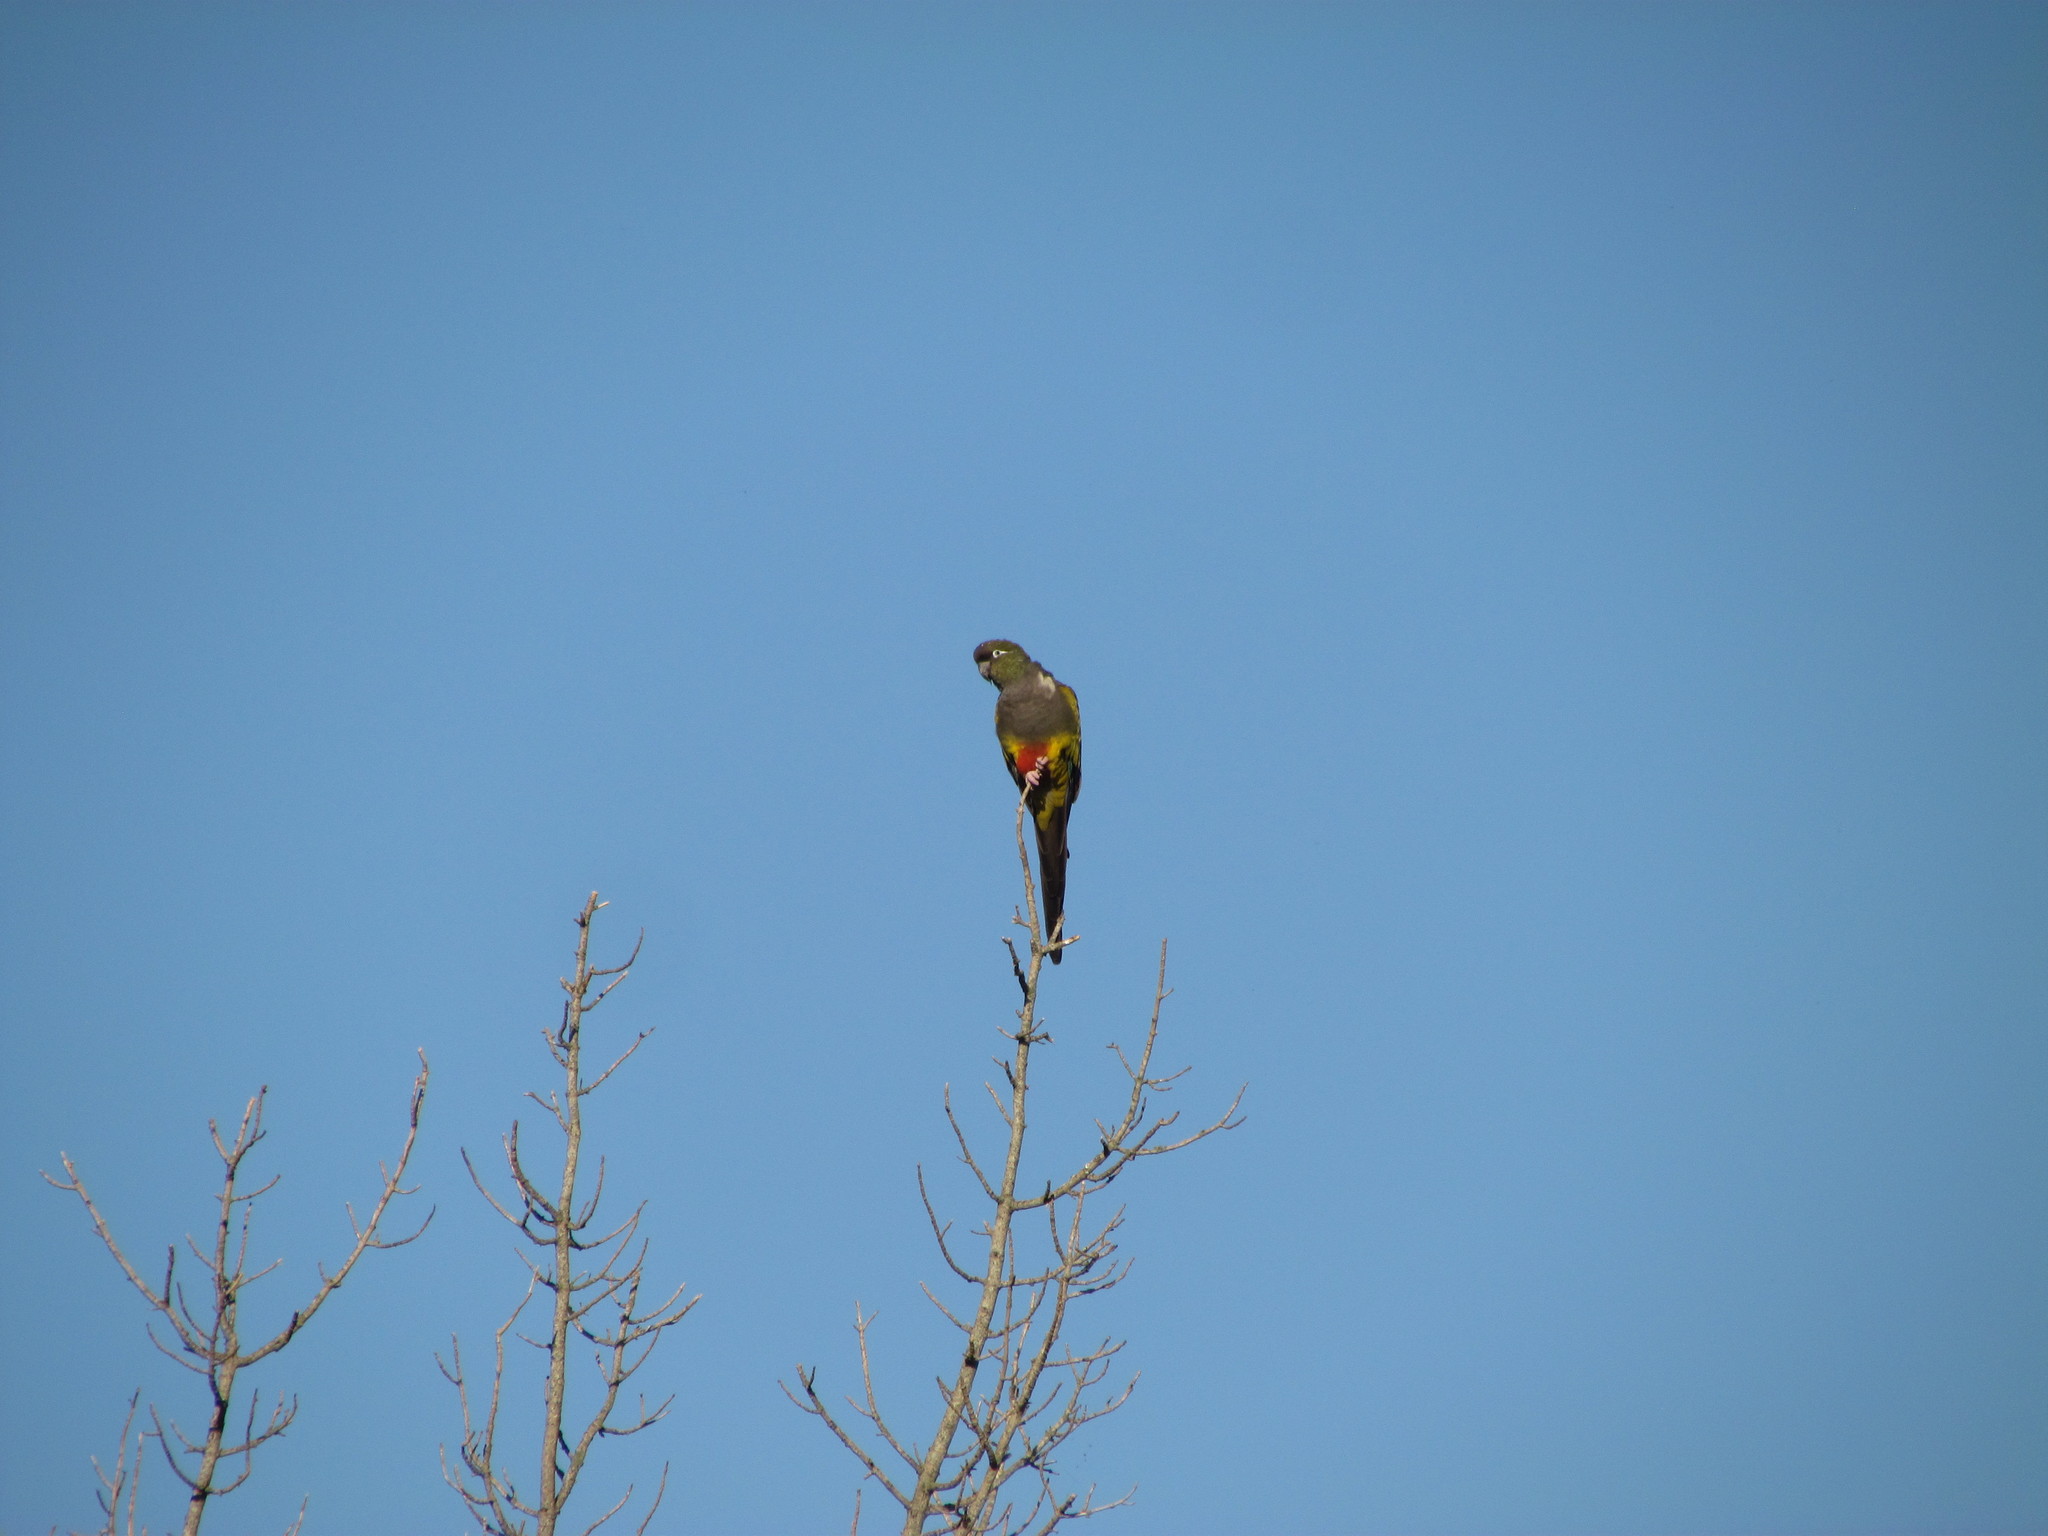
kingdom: Animalia
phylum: Chordata
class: Aves
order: Psittaciformes
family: Psittacidae
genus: Cyanoliseus
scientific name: Cyanoliseus patagonus
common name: Burrowing parrot
